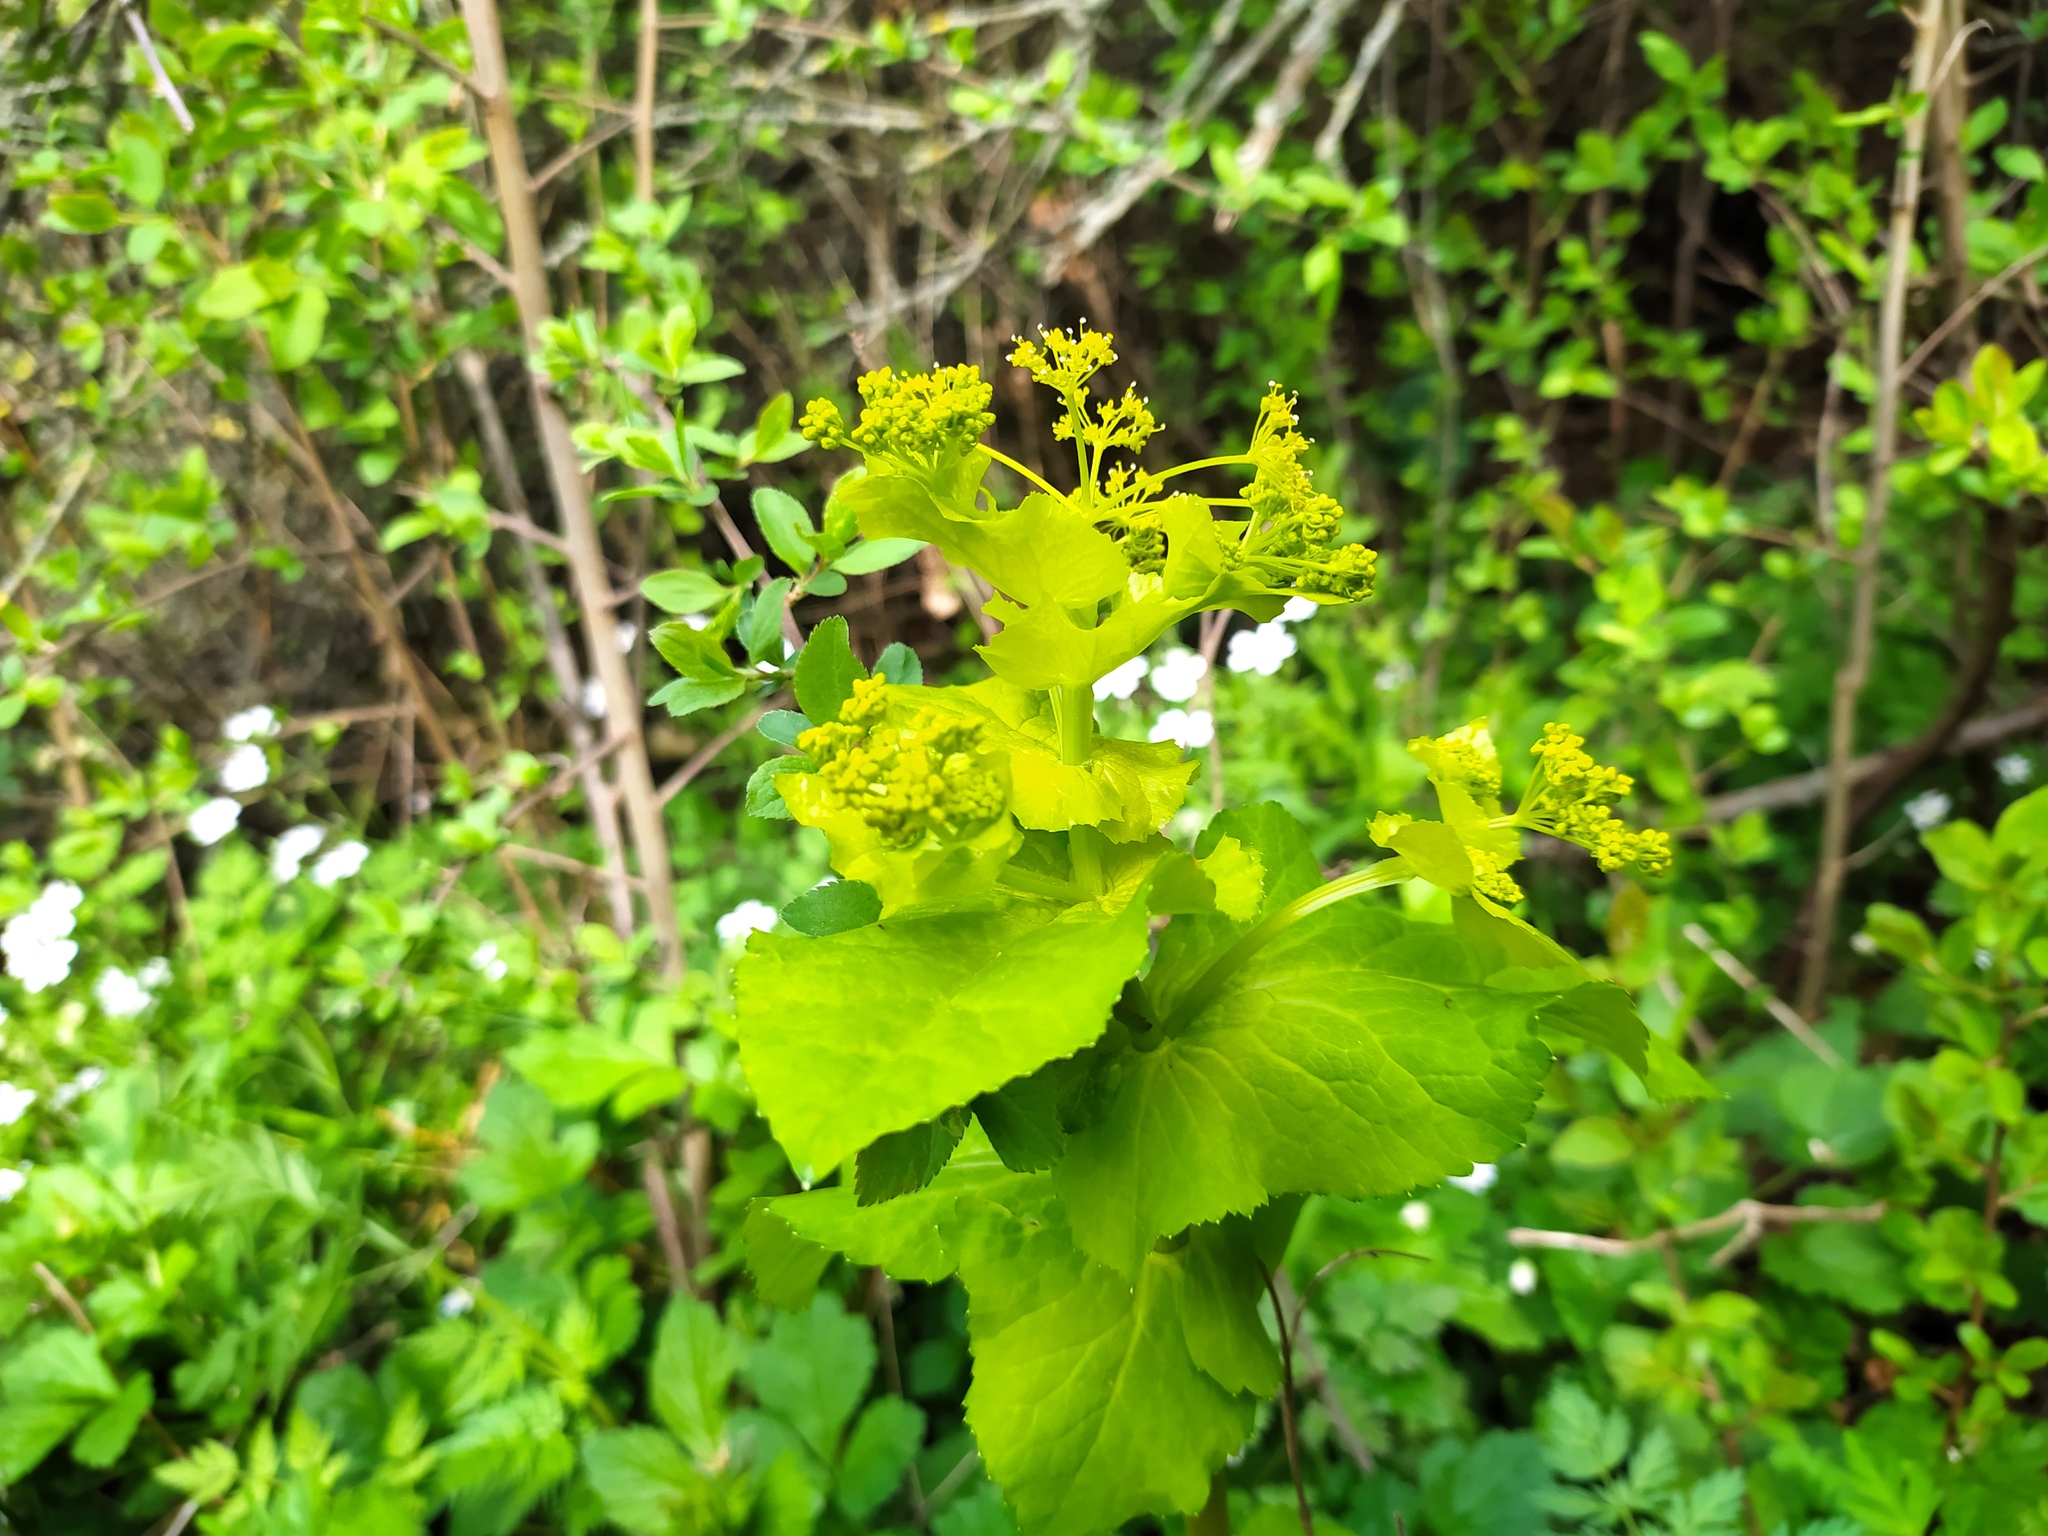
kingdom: Plantae
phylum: Tracheophyta
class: Magnoliopsida
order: Apiales
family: Apiaceae
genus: Smyrnium
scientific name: Smyrnium perfoliatum
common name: Perfoliate alexanders
